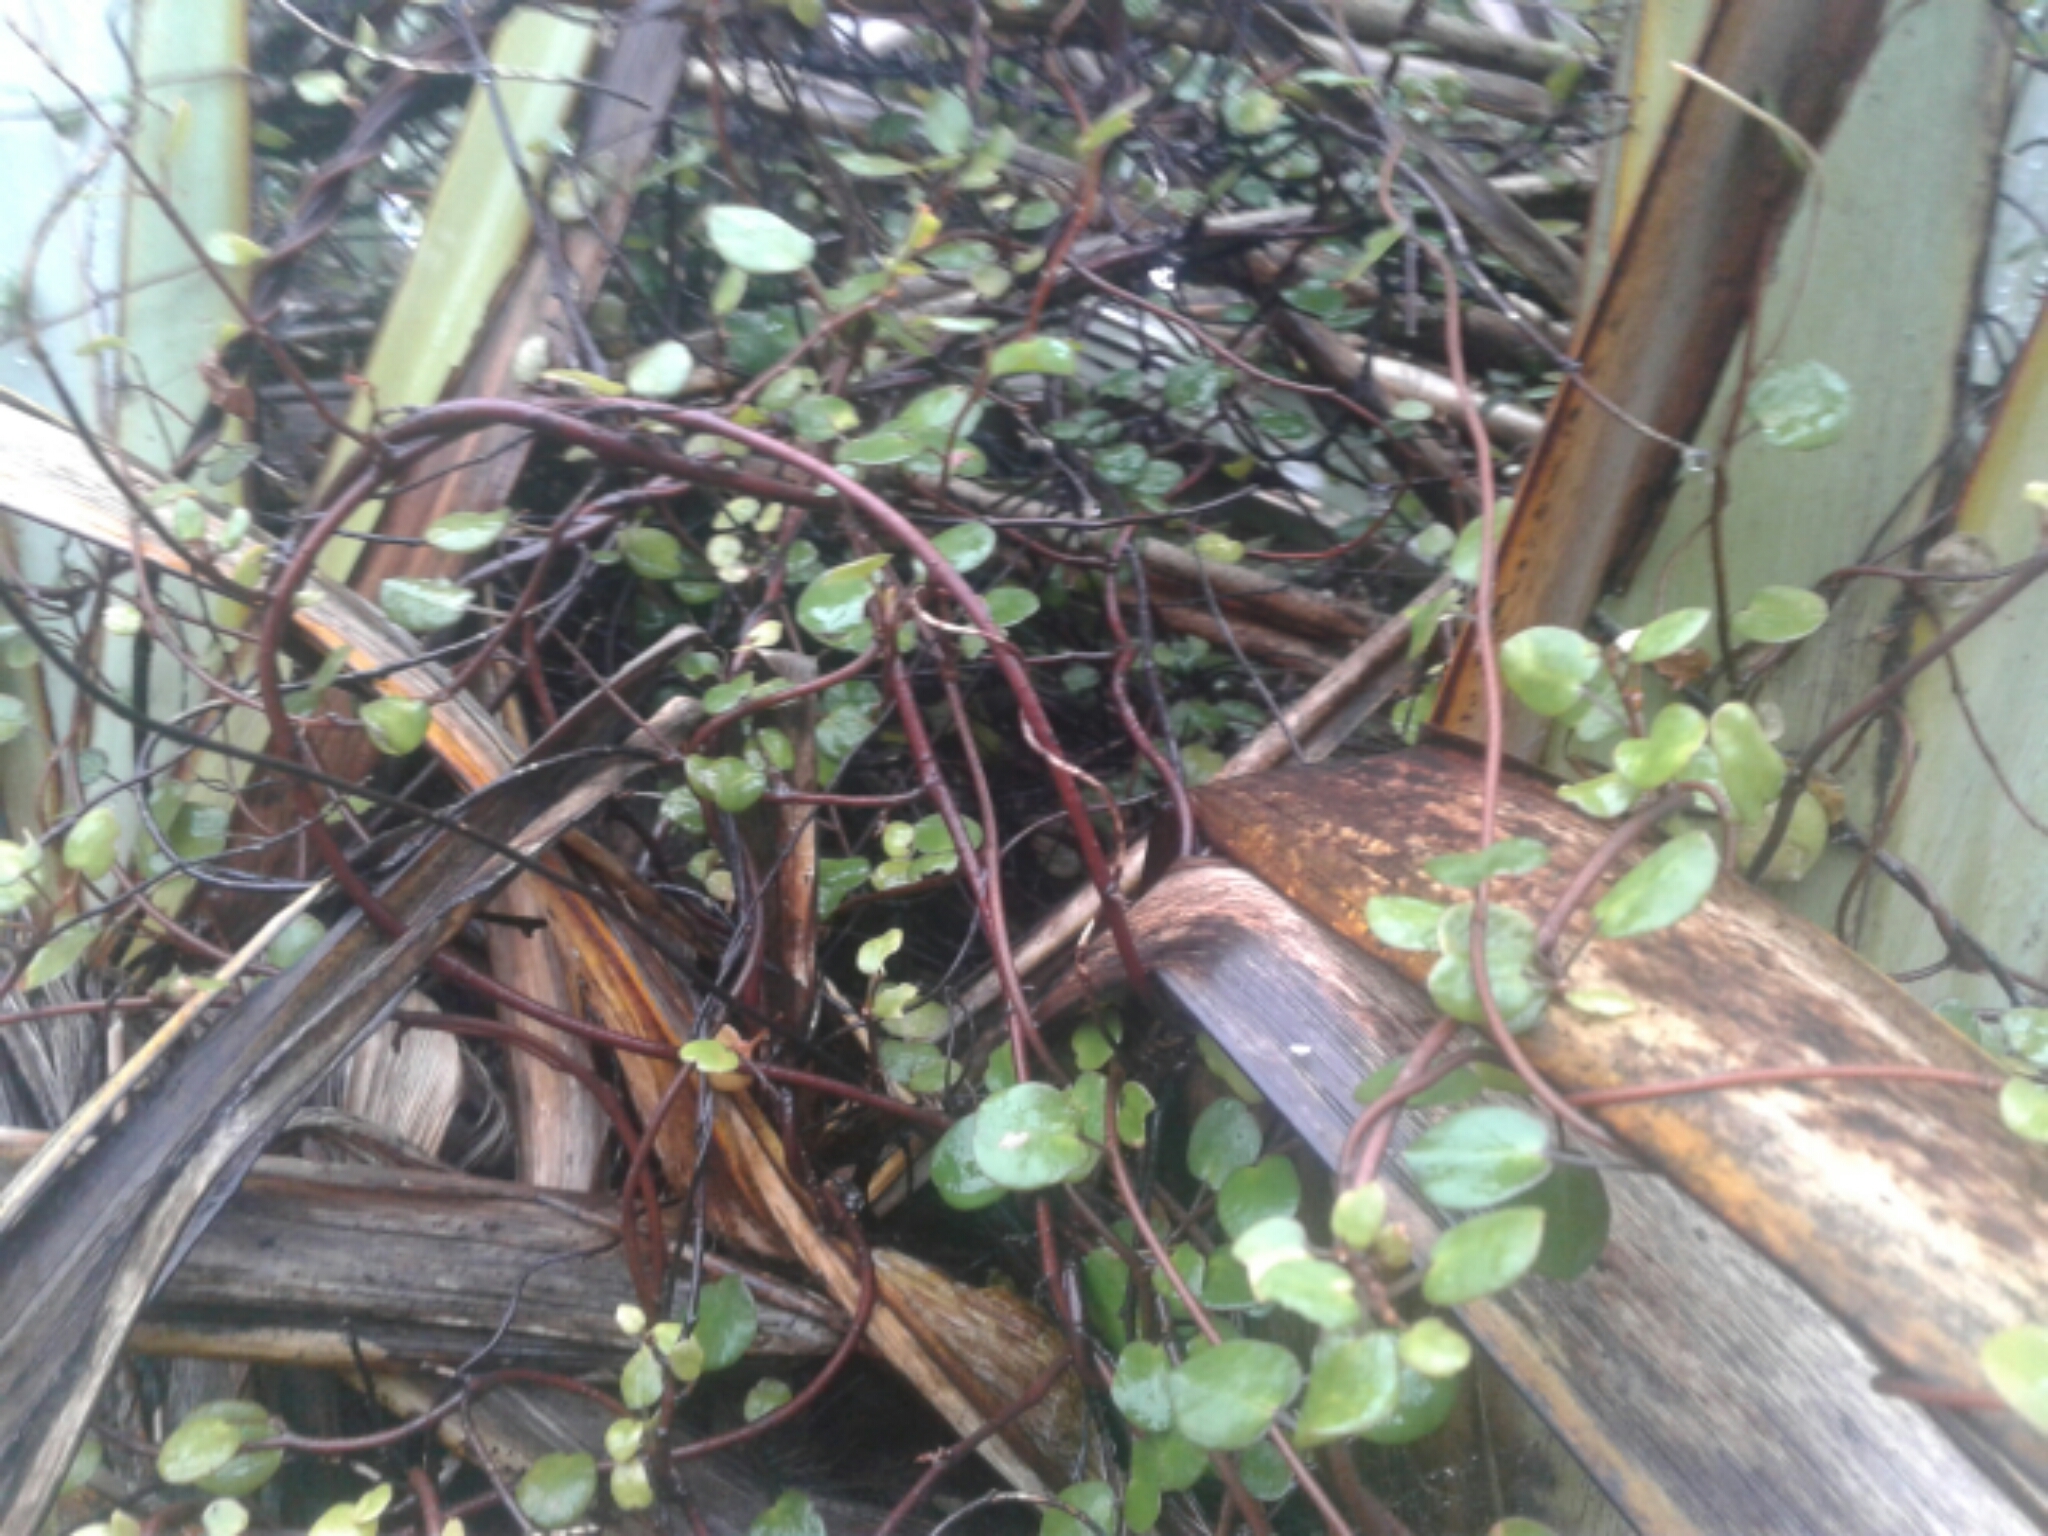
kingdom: Plantae
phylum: Tracheophyta
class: Magnoliopsida
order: Caryophyllales
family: Polygonaceae
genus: Muehlenbeckia
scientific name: Muehlenbeckia australis
